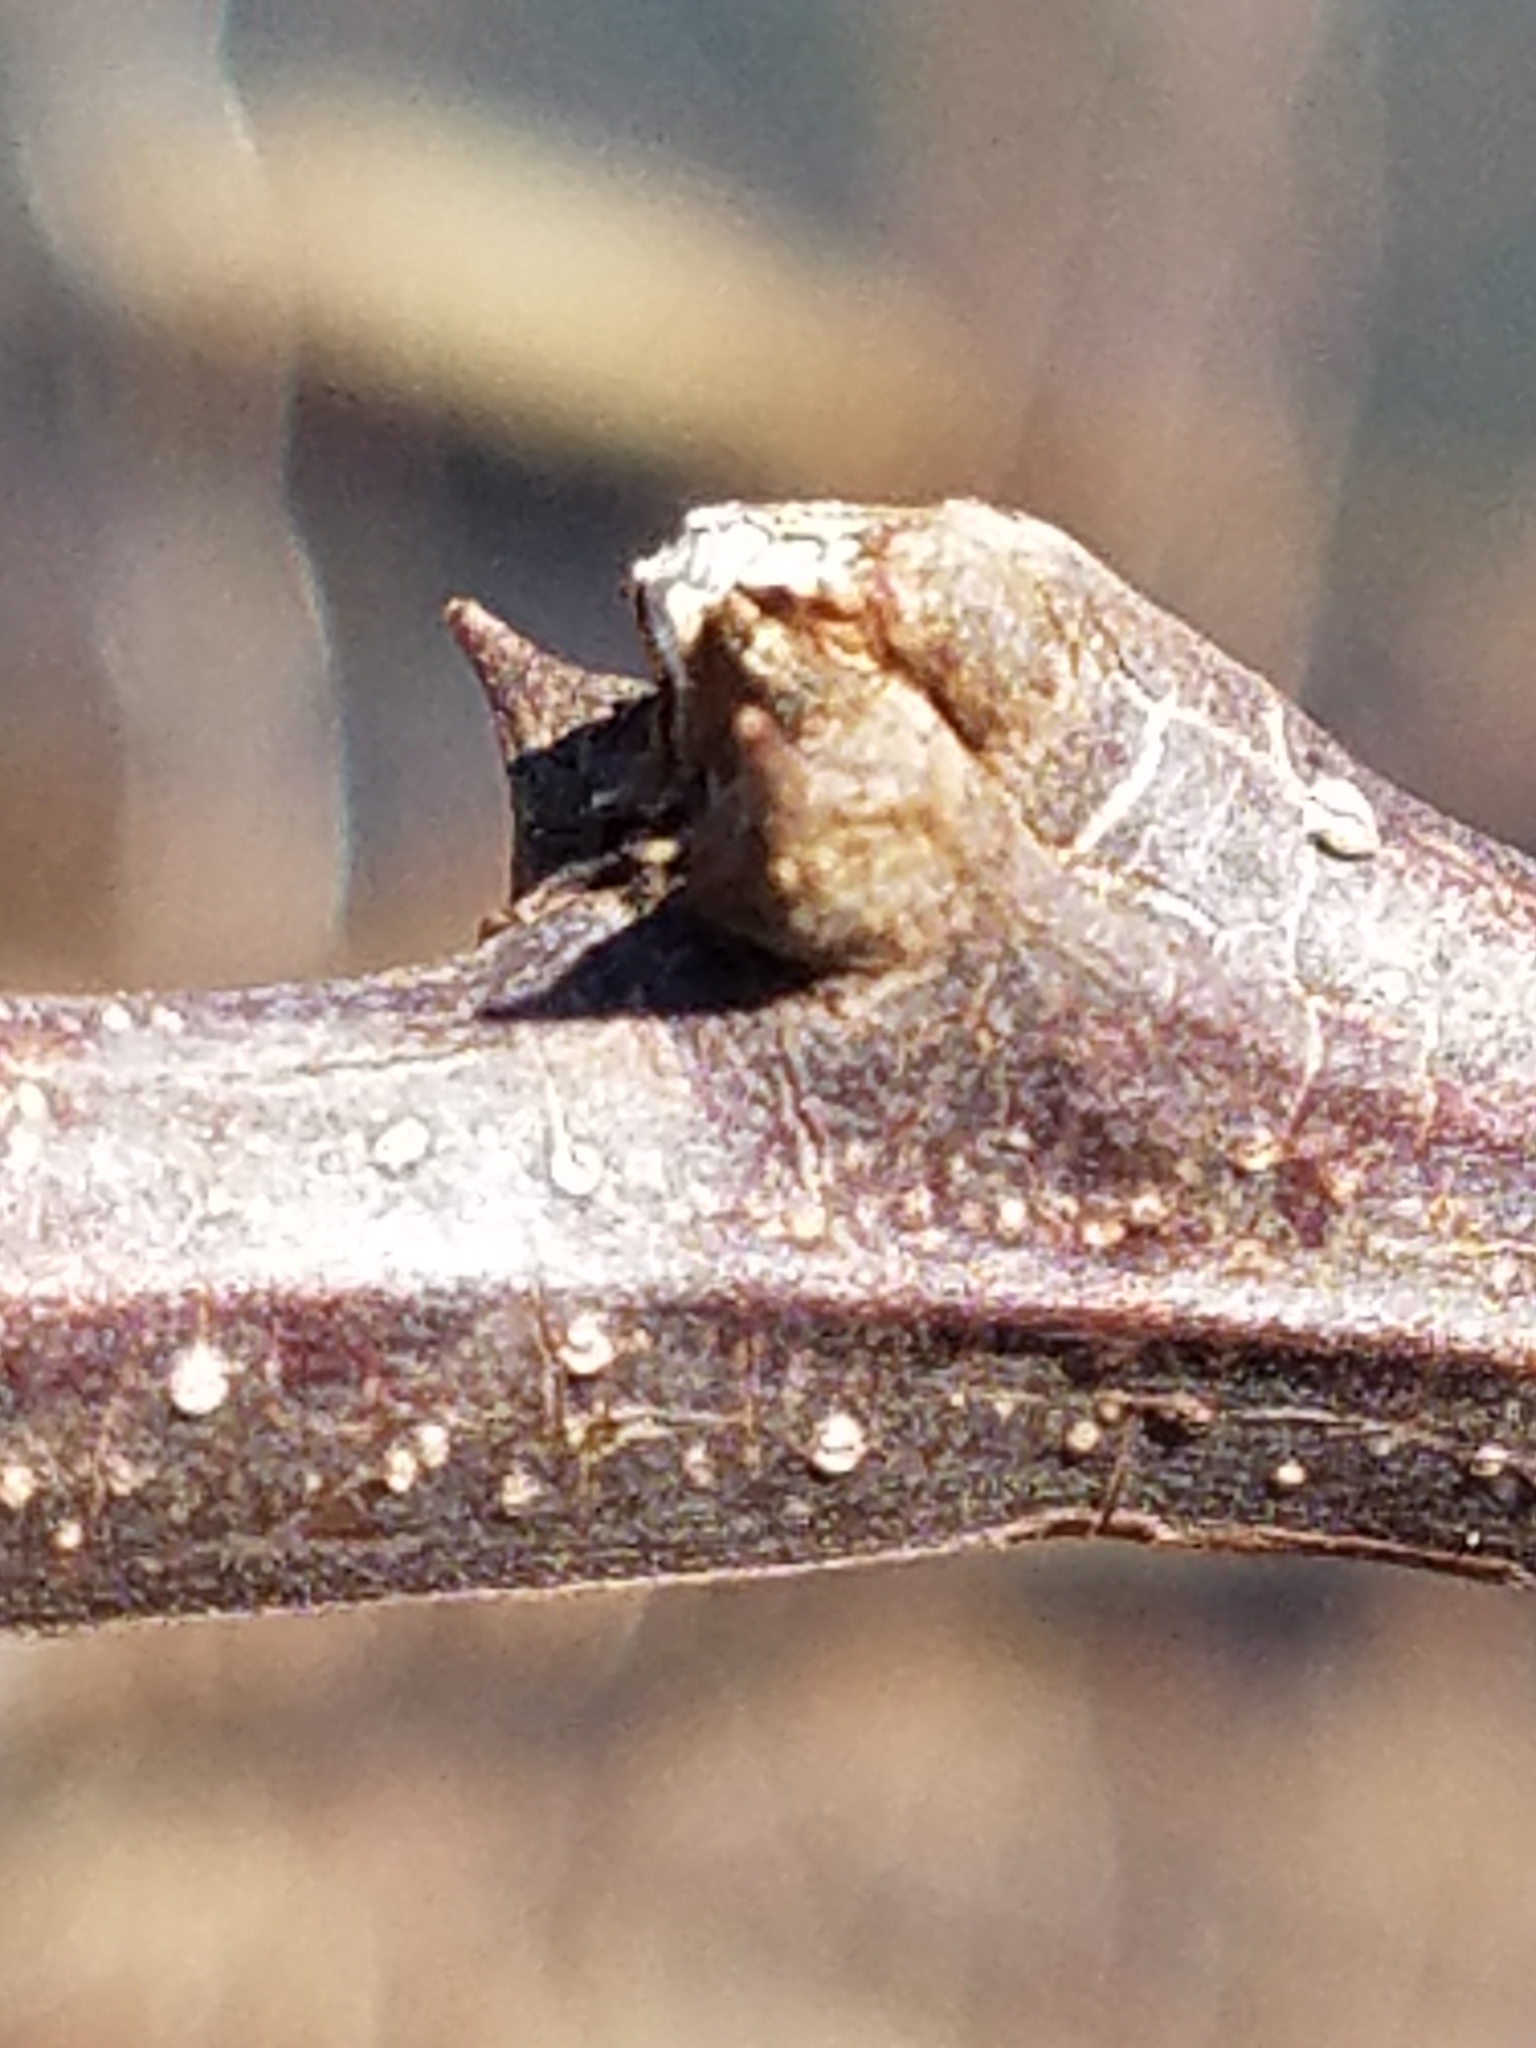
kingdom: Plantae
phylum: Tracheophyta
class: Magnoliopsida
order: Fabales
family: Fabaceae
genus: Robinia
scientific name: Robinia pseudoacacia
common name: Black locust
